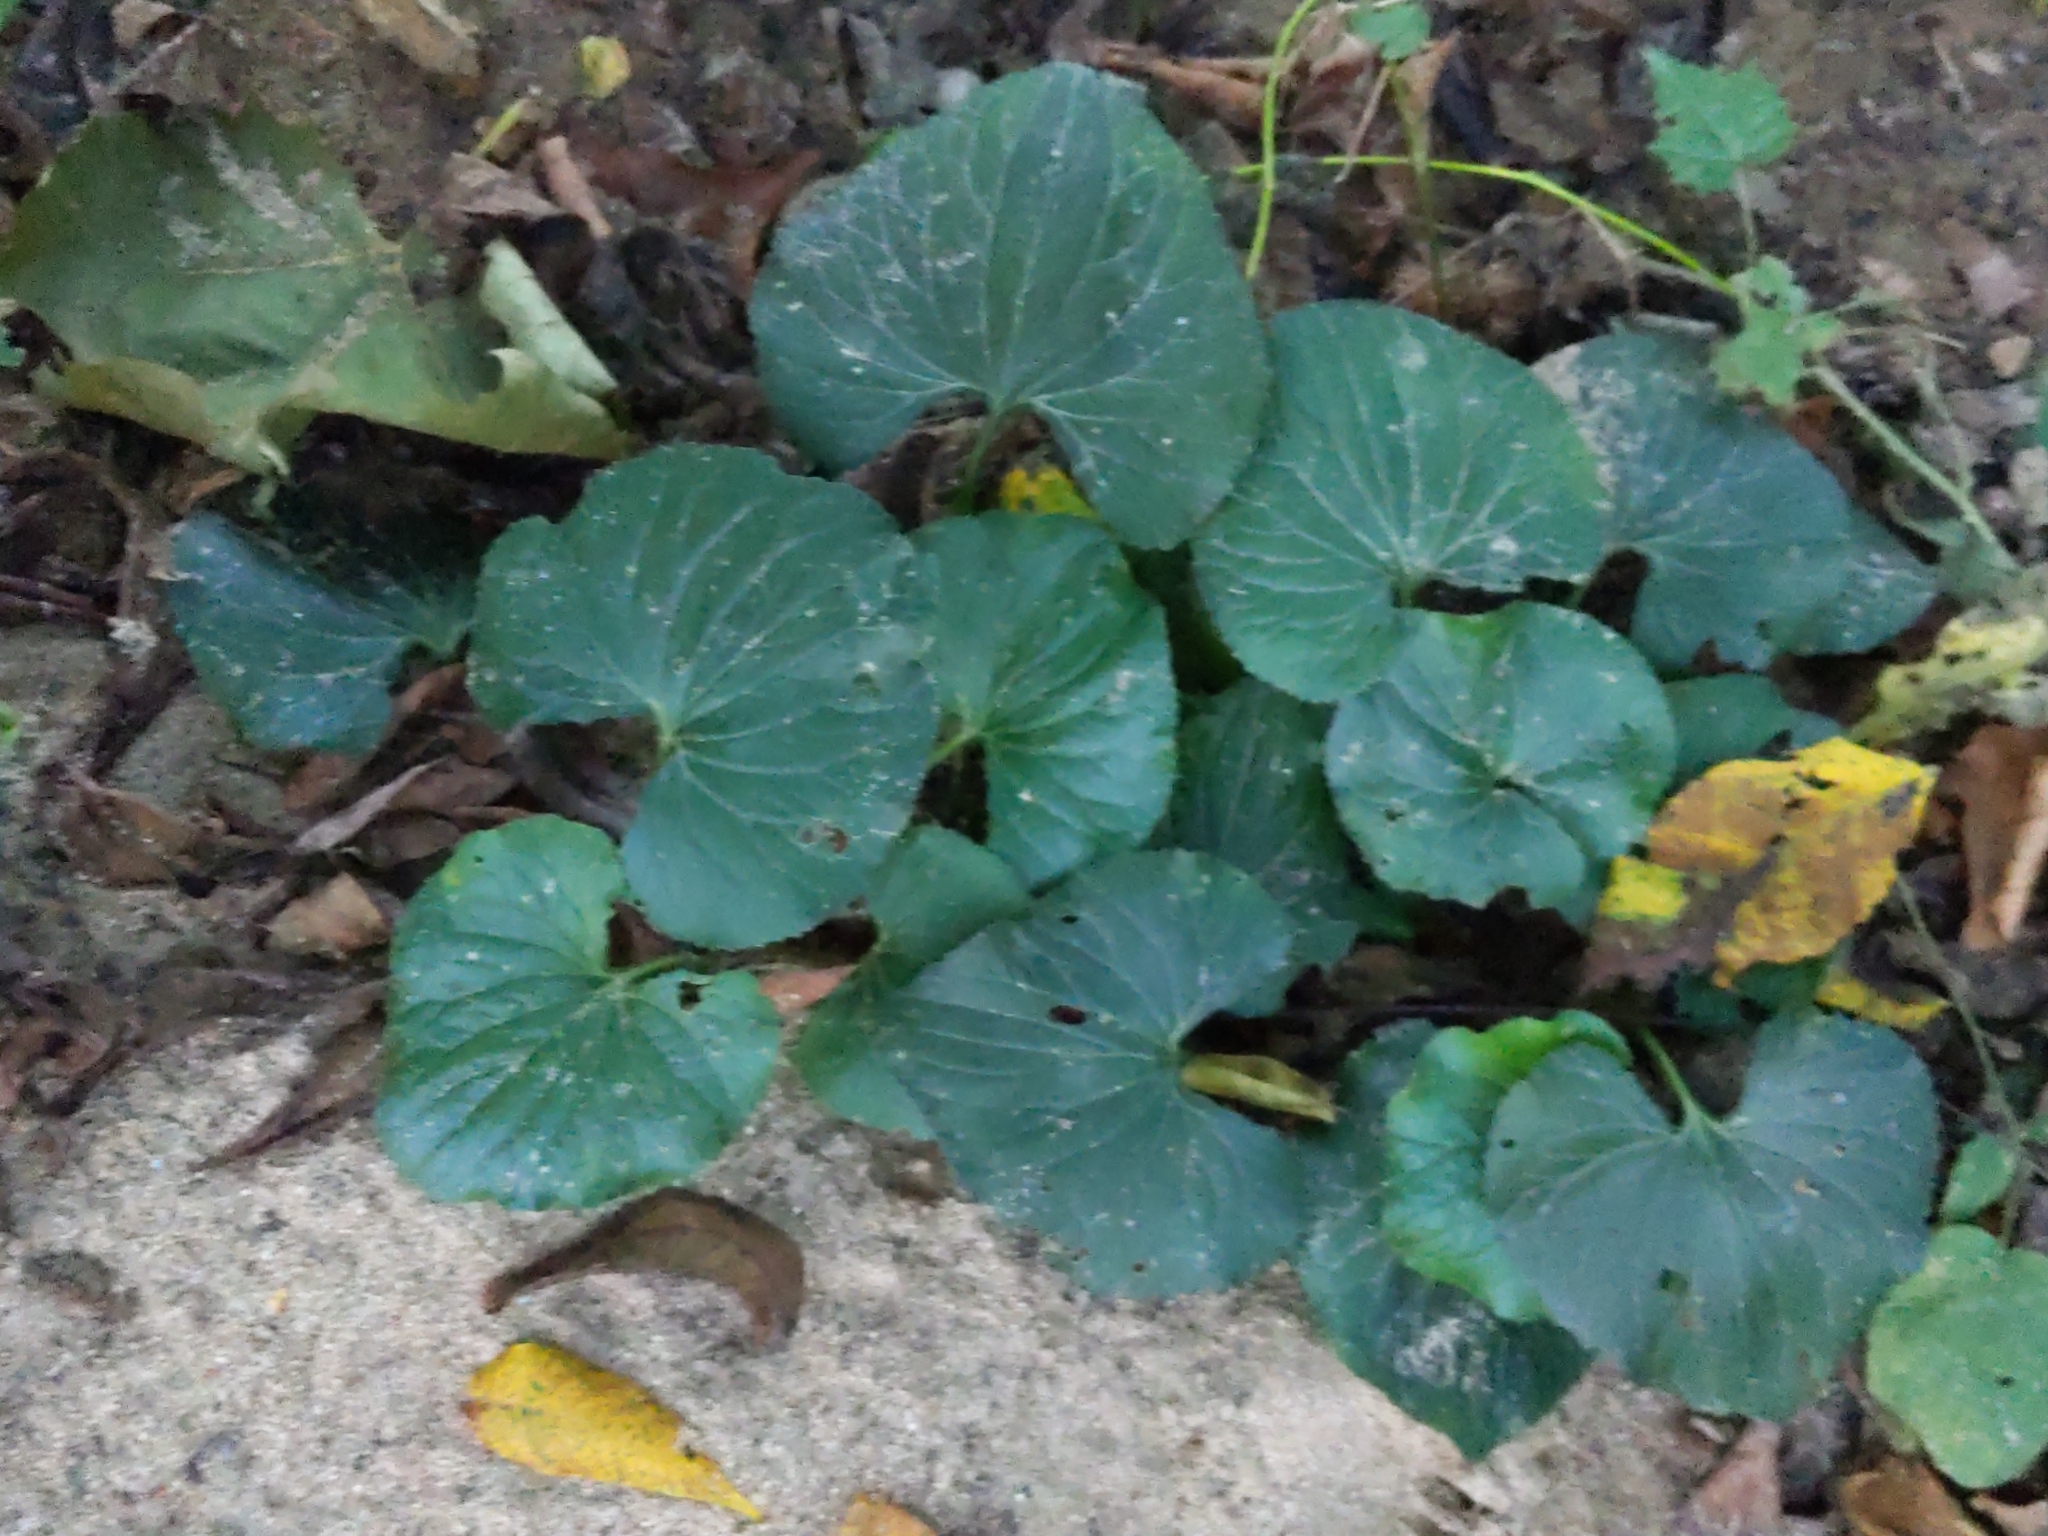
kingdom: Plantae
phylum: Tracheophyta
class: Magnoliopsida
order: Malpighiales
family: Violaceae
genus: Viola
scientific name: Viola
